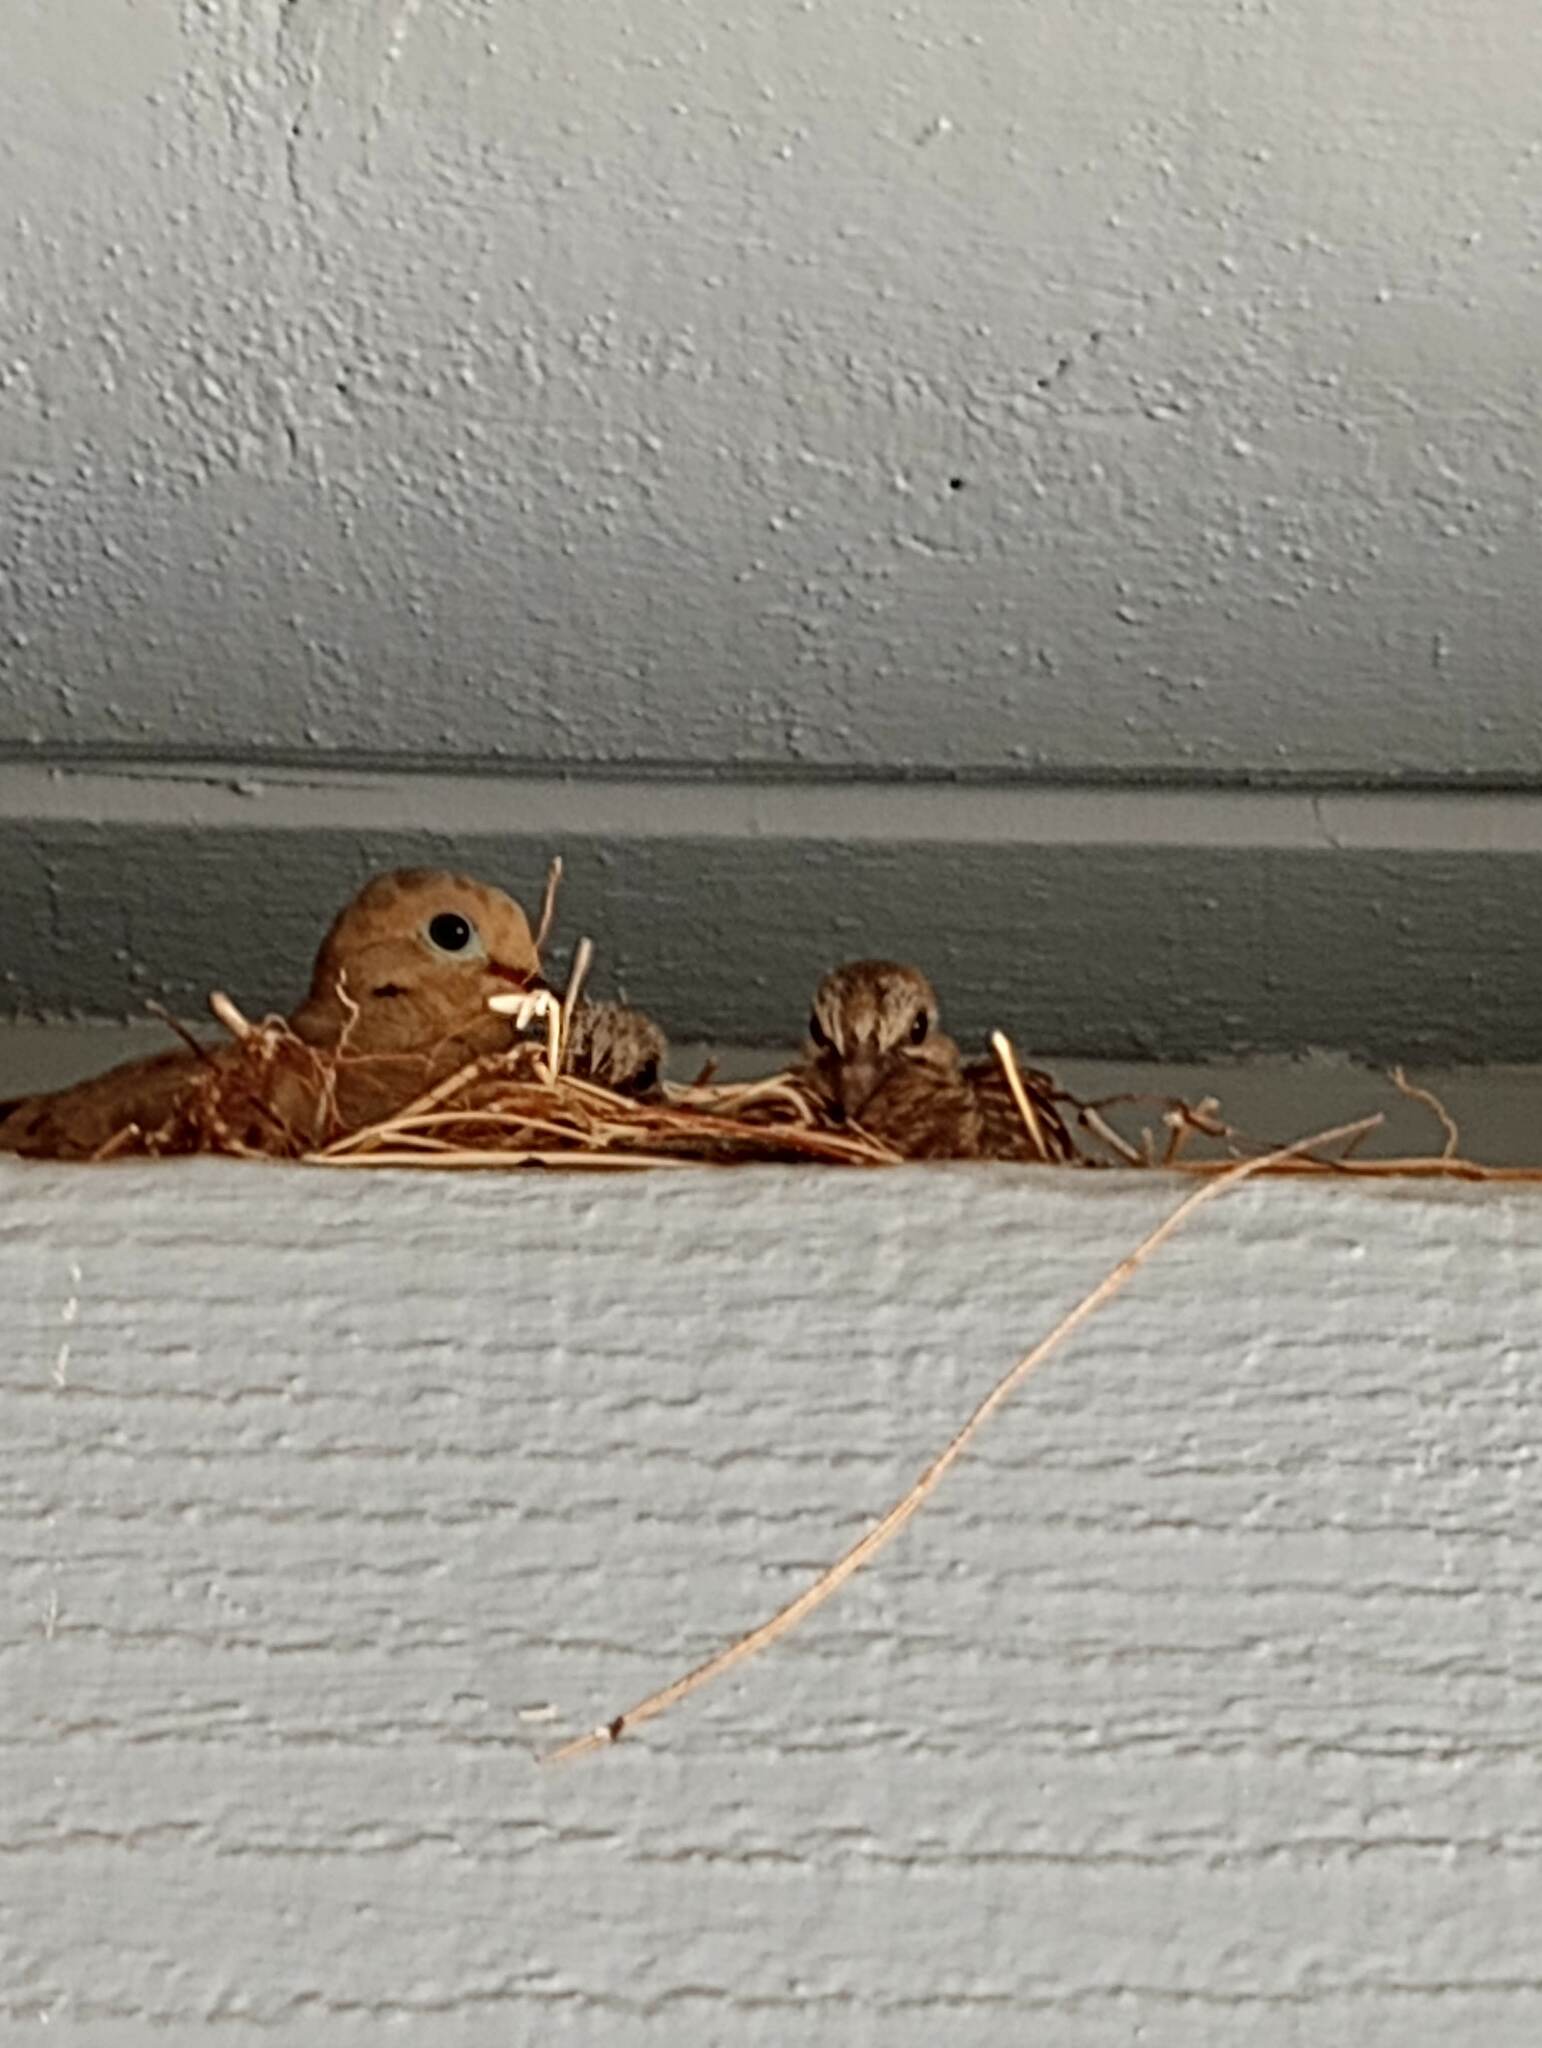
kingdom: Animalia
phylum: Chordata
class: Aves
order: Columbiformes
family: Columbidae
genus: Zenaida
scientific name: Zenaida macroura
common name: Mourning dove
